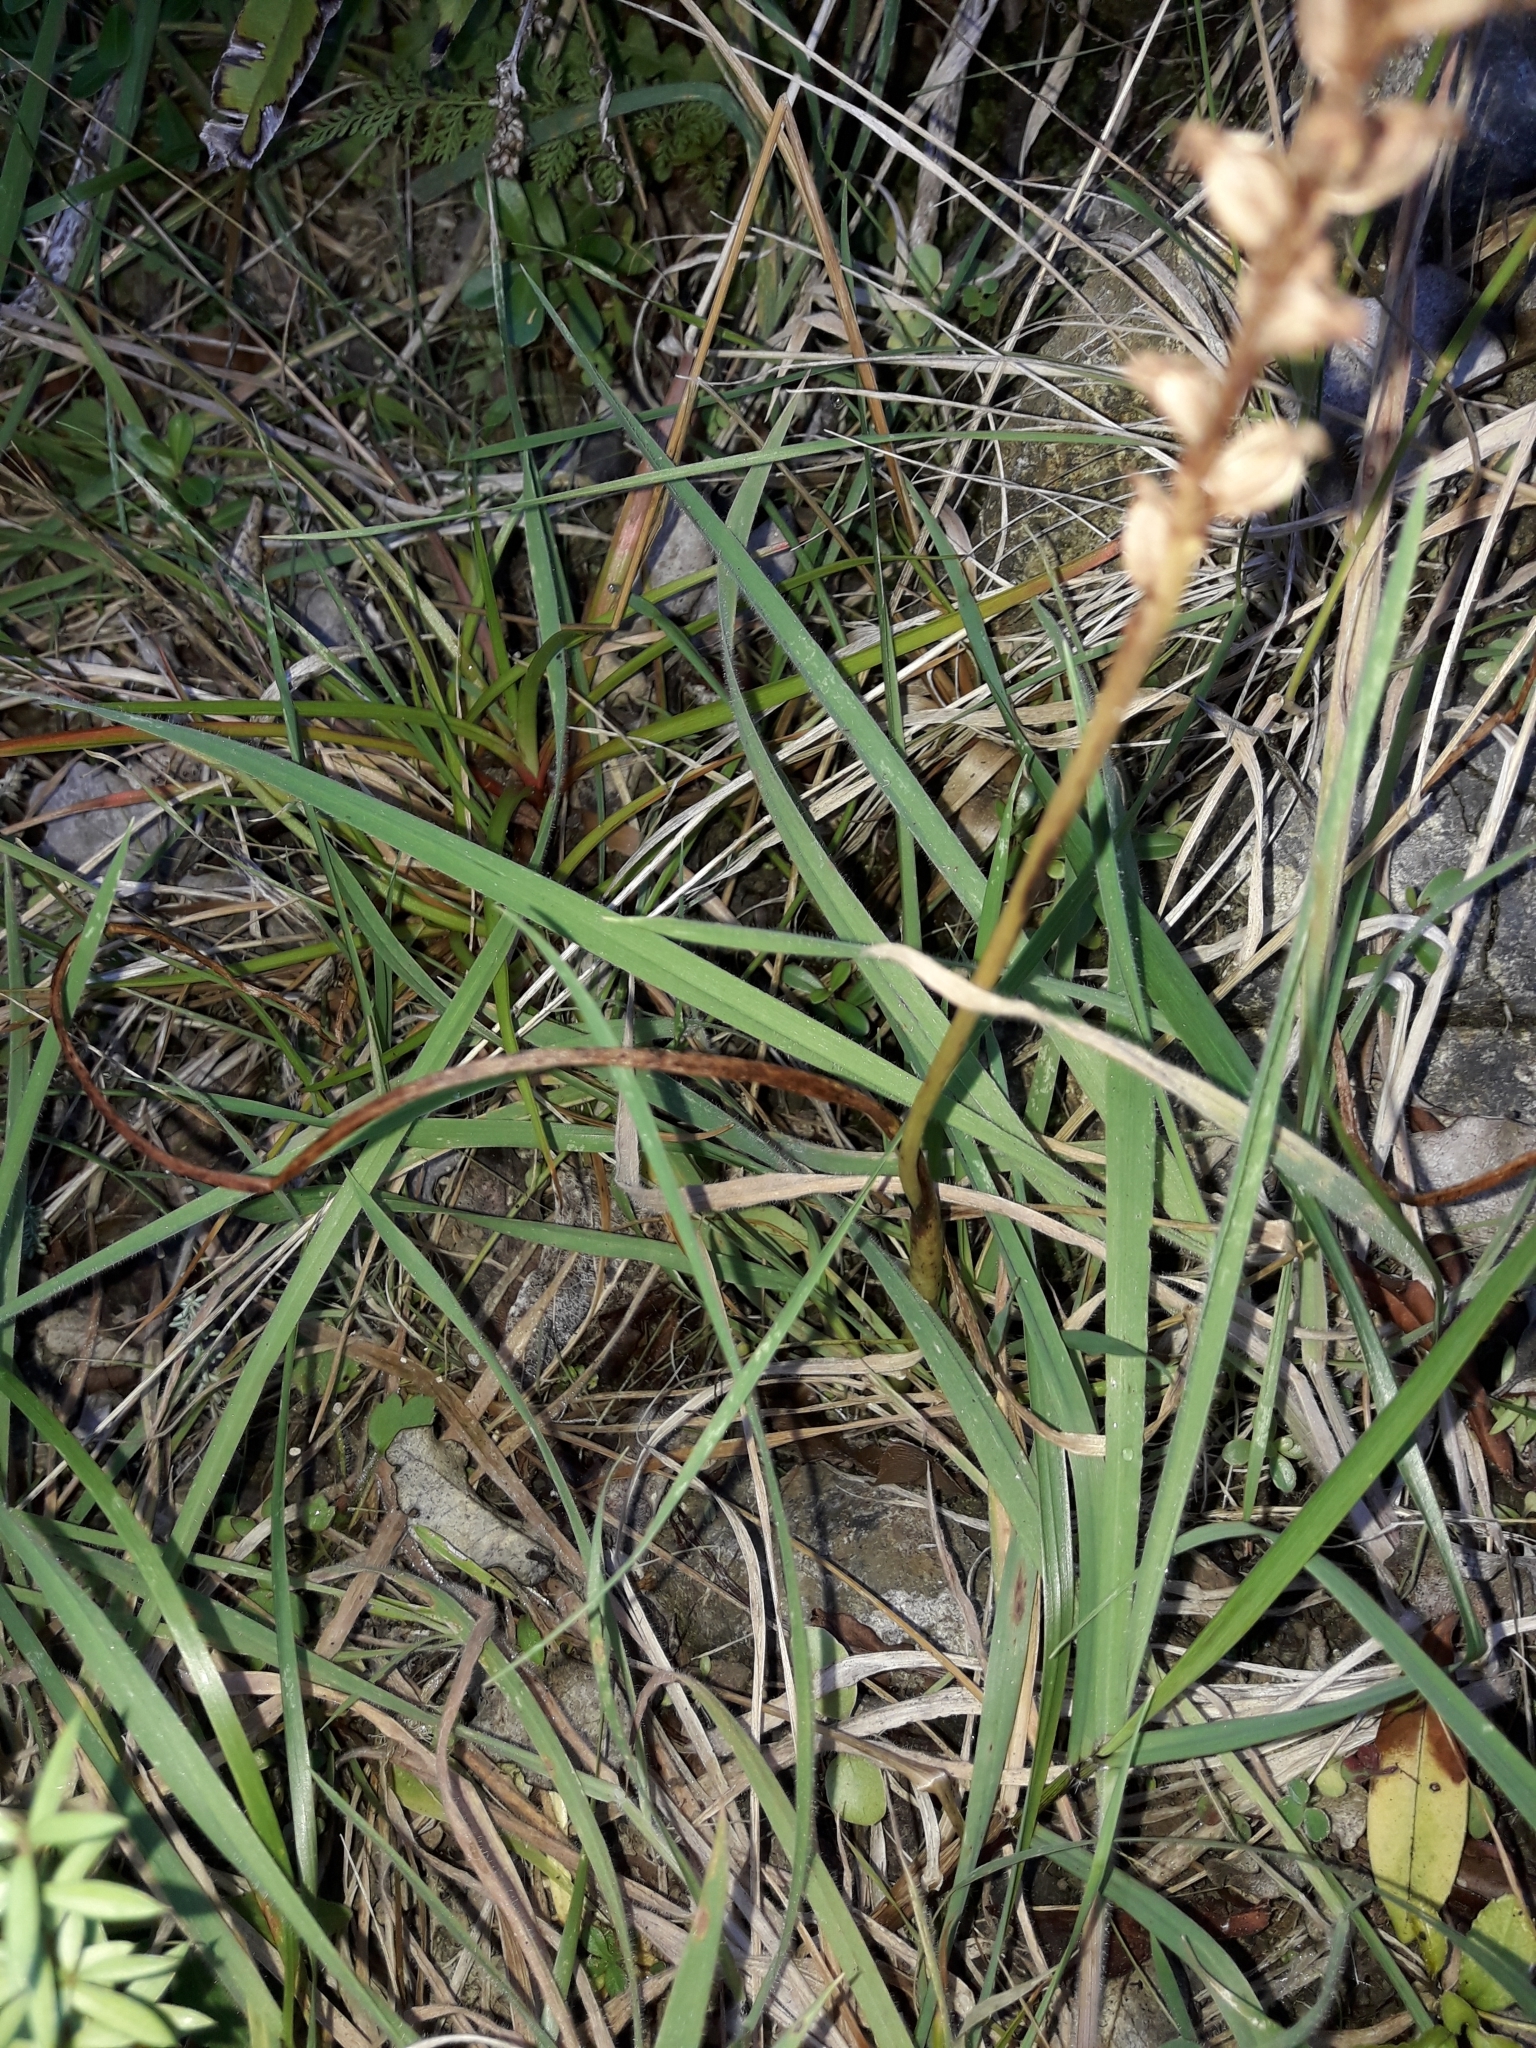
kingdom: Plantae
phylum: Tracheophyta
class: Liliopsida
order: Asparagales
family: Orchidaceae
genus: Microtis
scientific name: Microtis unifolia
